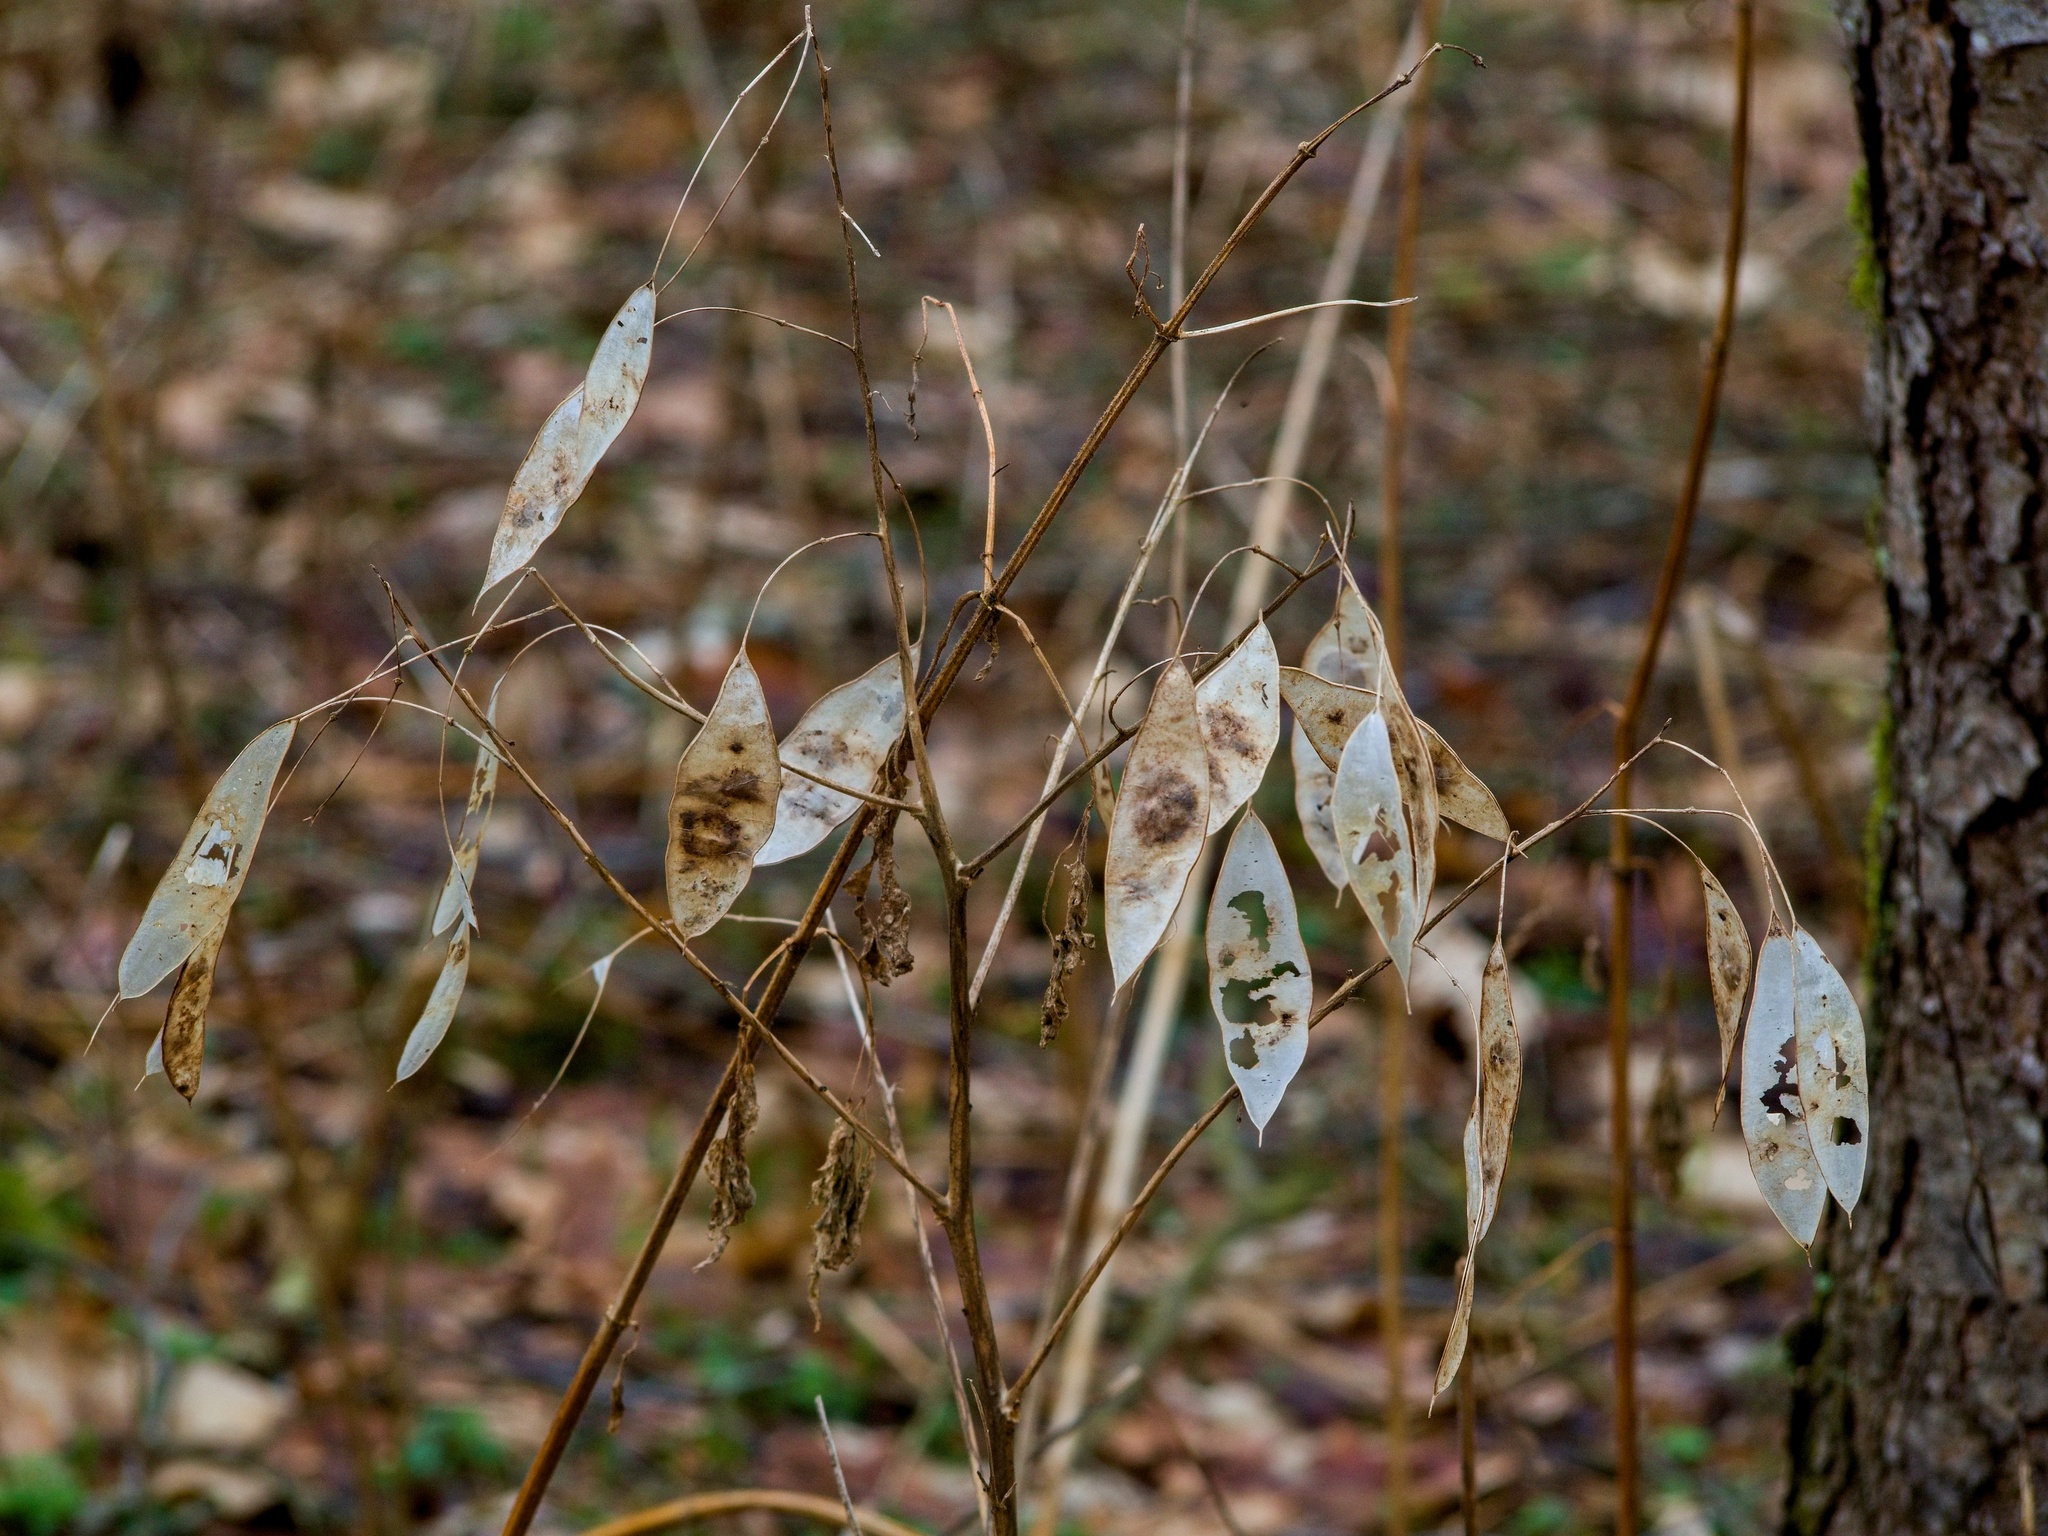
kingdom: Plantae
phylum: Tracheophyta
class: Magnoliopsida
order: Brassicales
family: Brassicaceae
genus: Lunaria
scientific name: Lunaria rediviva
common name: Perennial honesty
